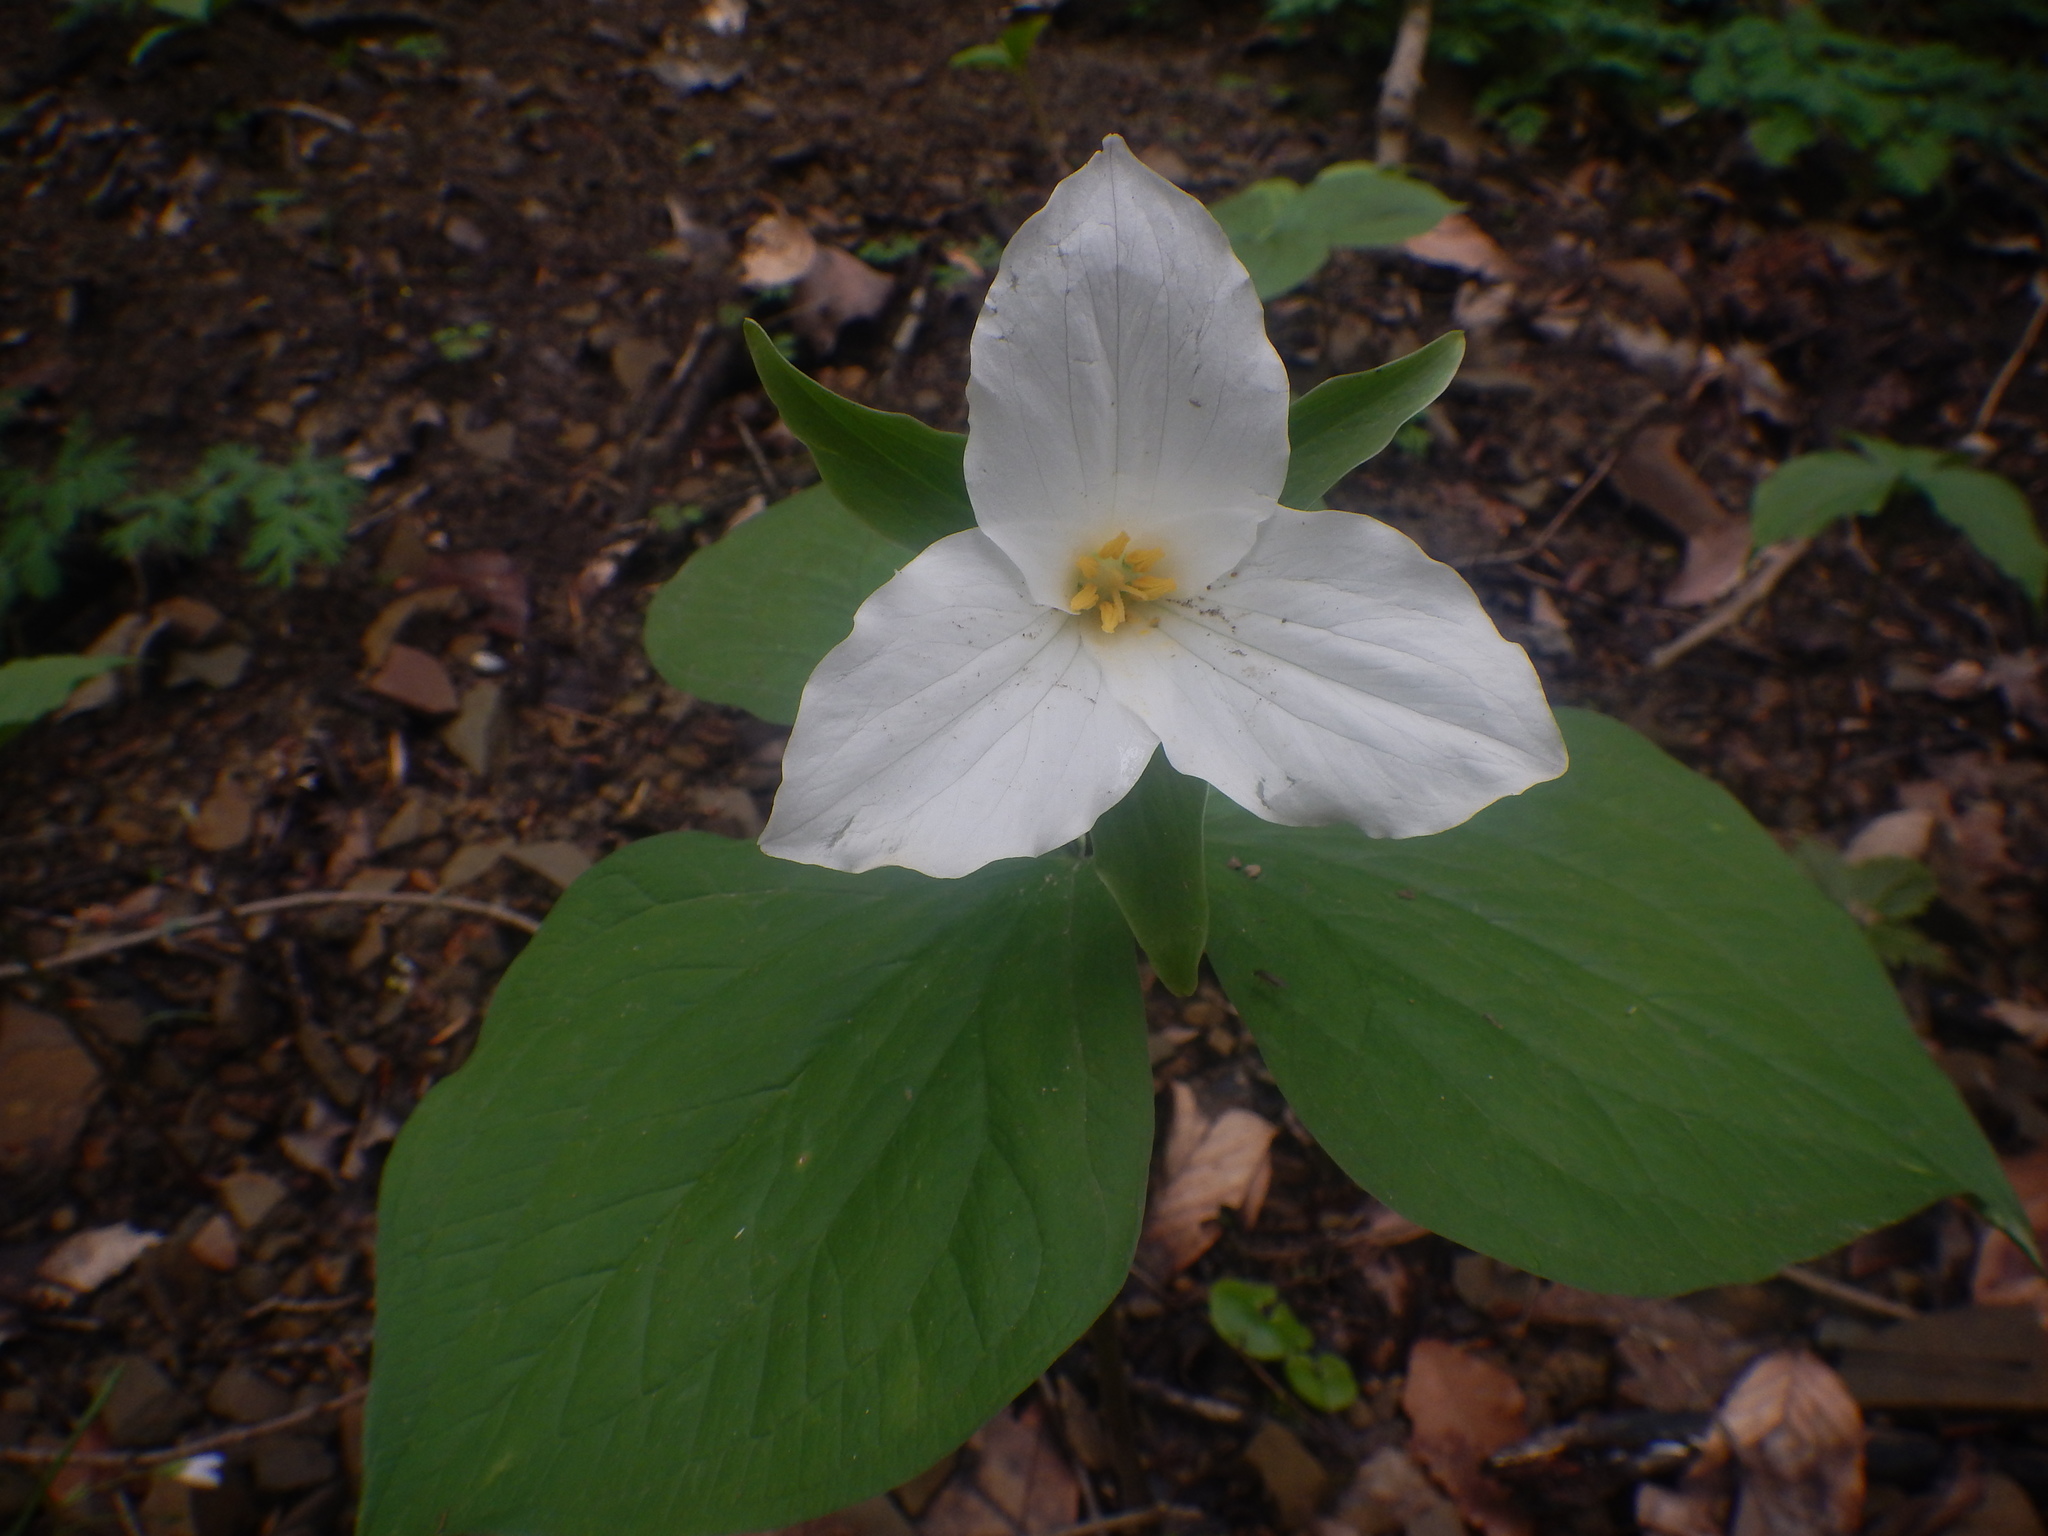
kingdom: Plantae
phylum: Tracheophyta
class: Liliopsida
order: Liliales
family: Melanthiaceae
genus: Trillium
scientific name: Trillium grandiflorum
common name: Great white trillium
